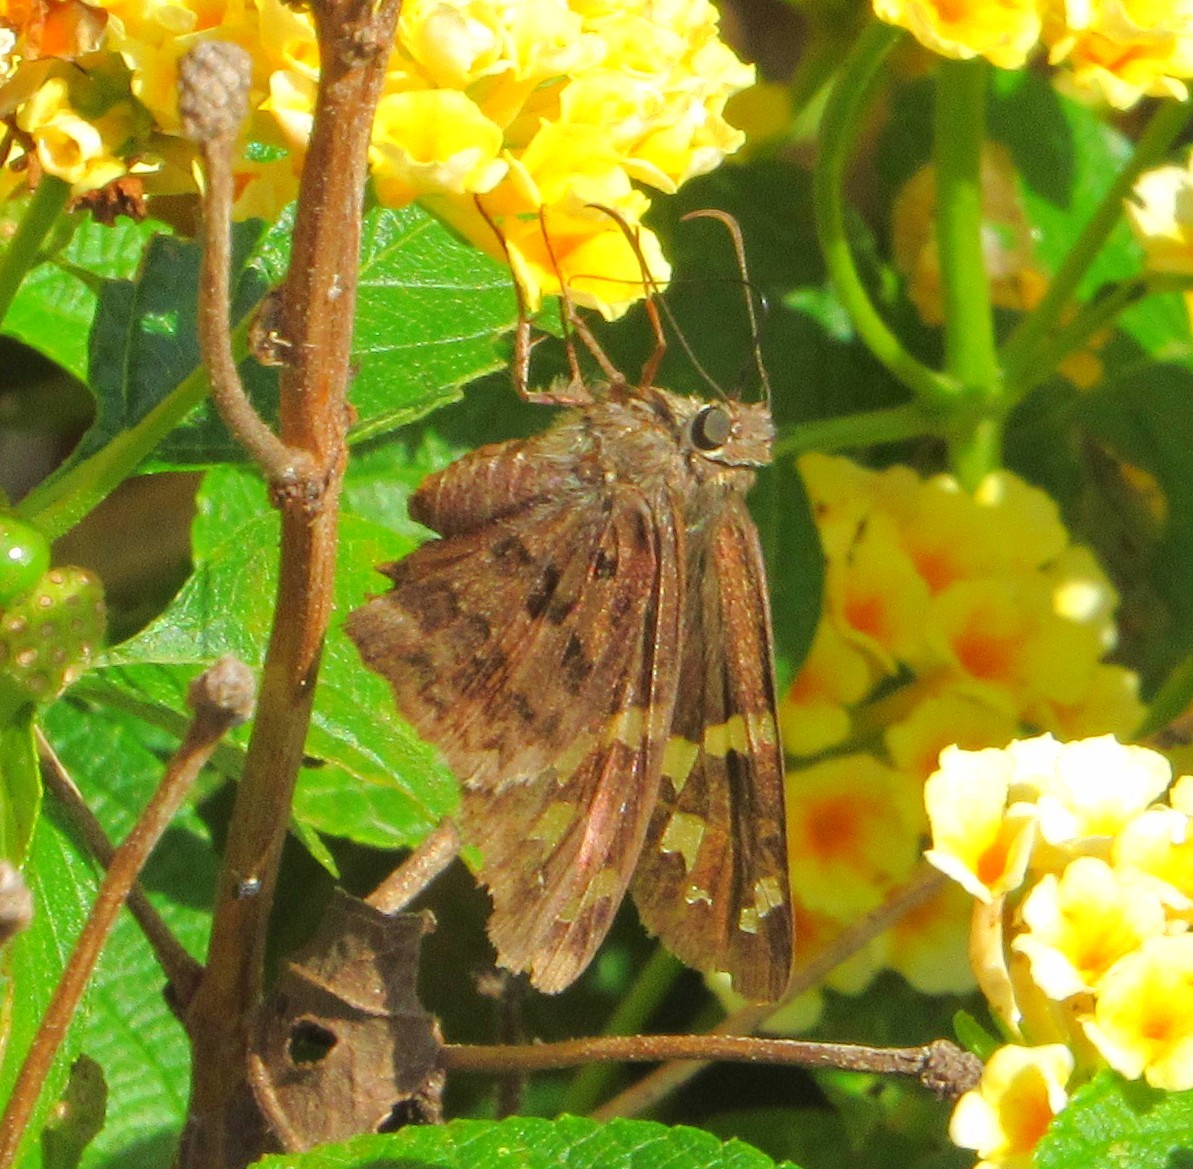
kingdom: Animalia
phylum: Arthropoda
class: Insecta
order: Lepidoptera
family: Hesperiidae
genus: Thorybes
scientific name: Thorybes
